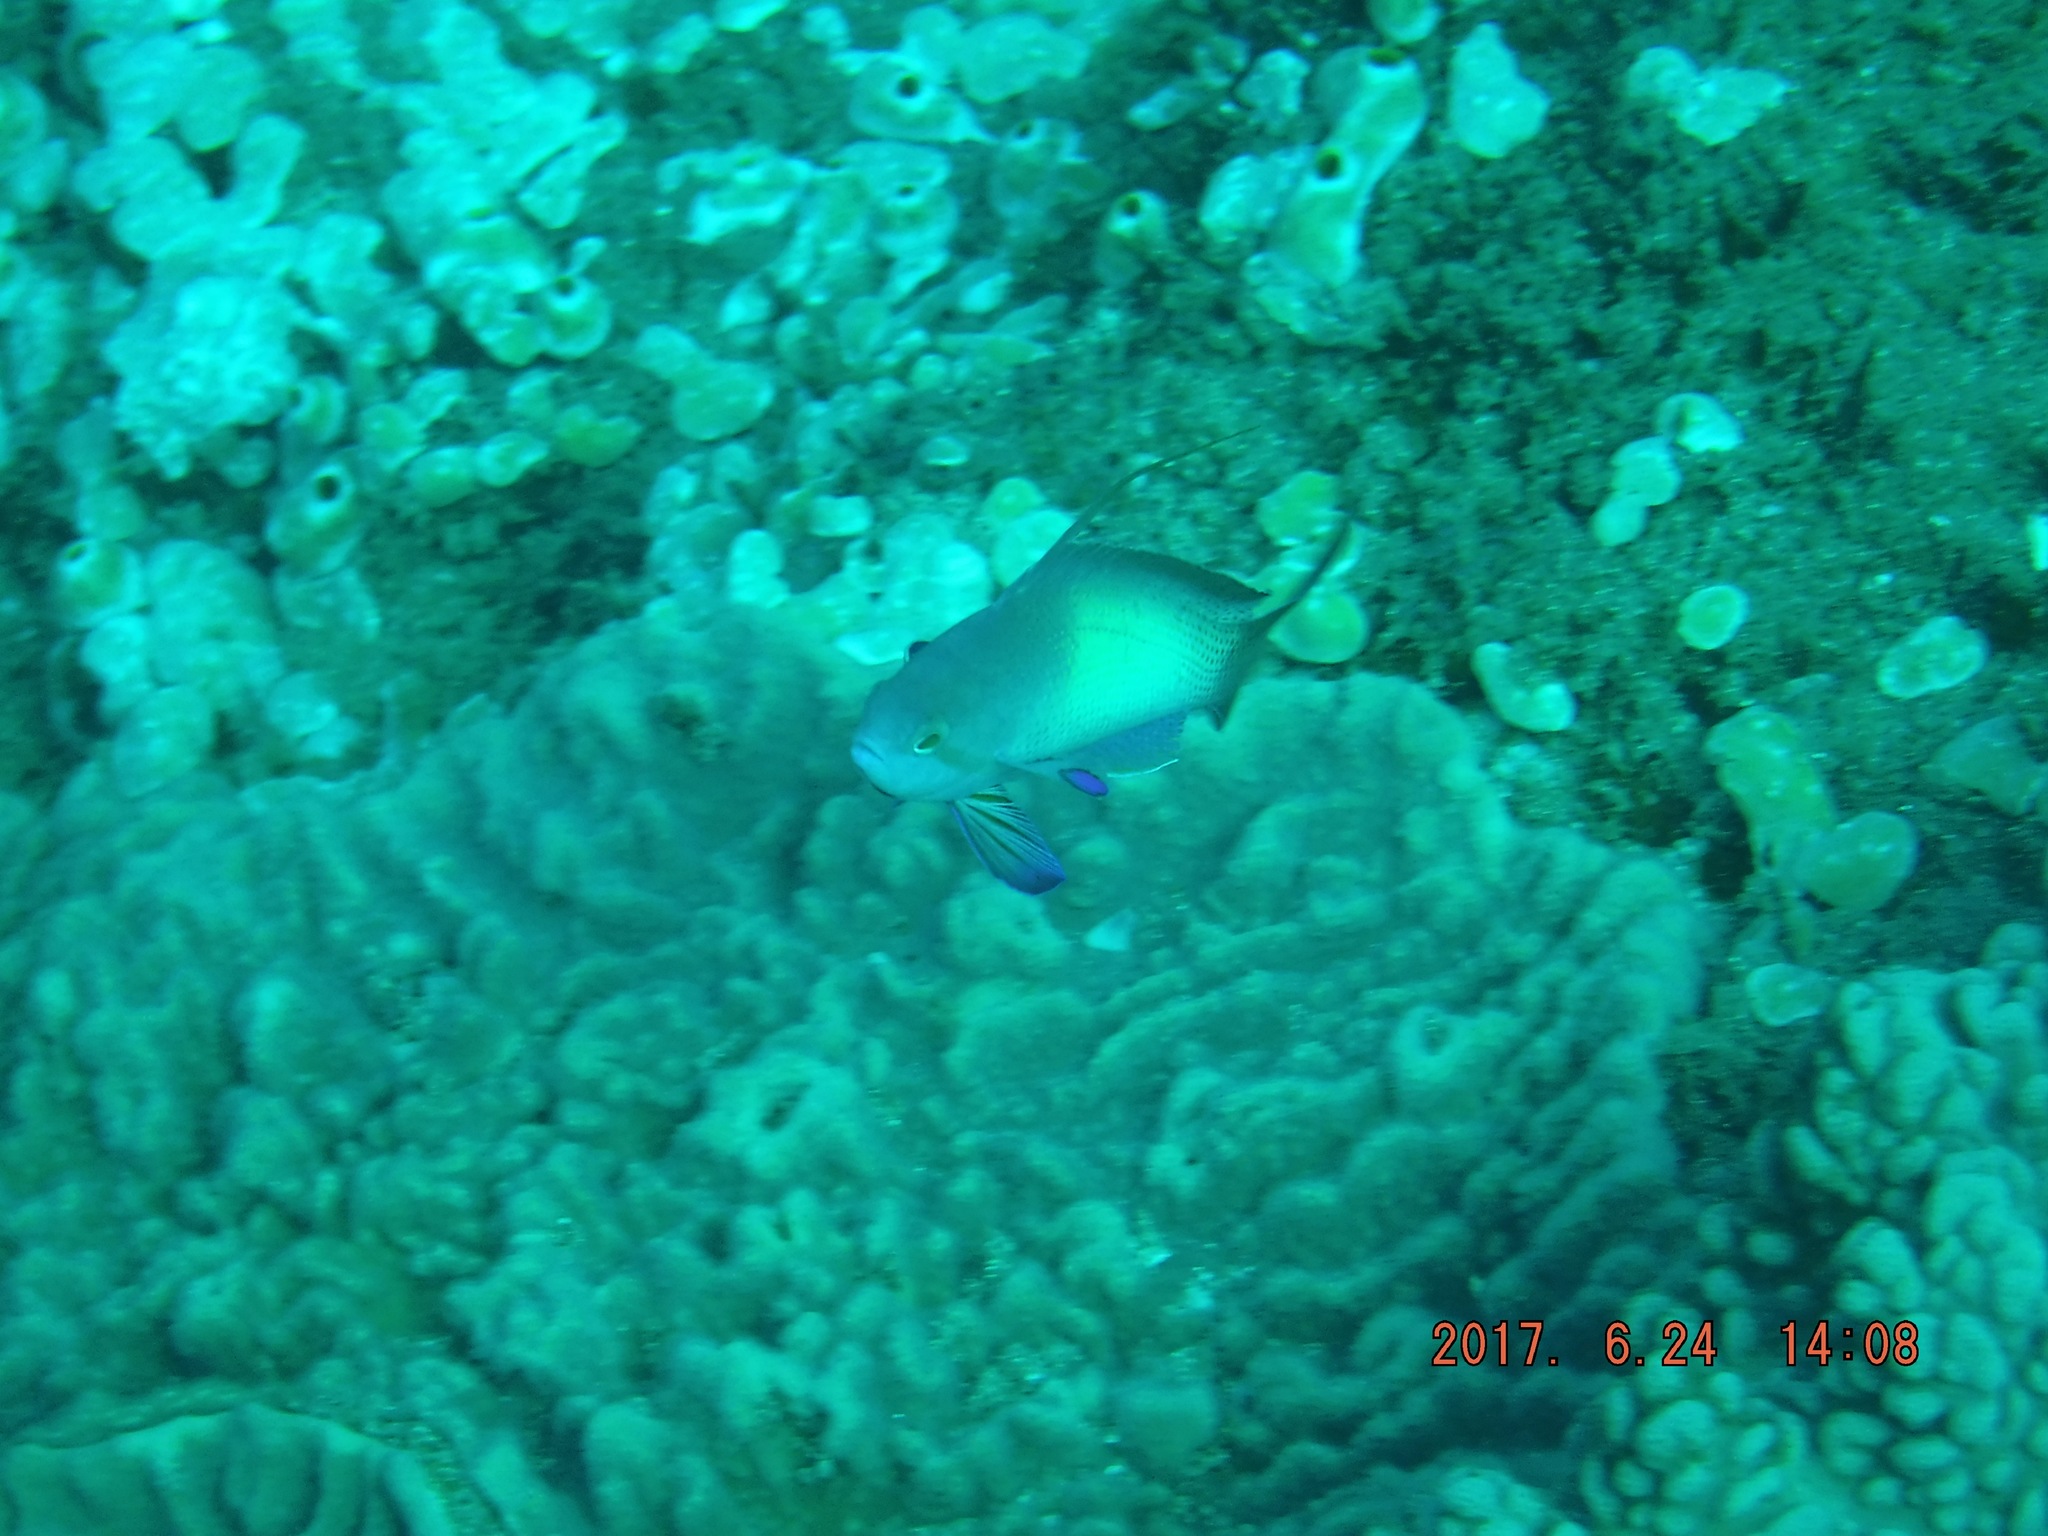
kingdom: Animalia
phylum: Chordata
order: Perciformes
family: Serranidae
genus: Pseudanthias
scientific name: Pseudanthias squamipinnis
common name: Scalefin anthias
